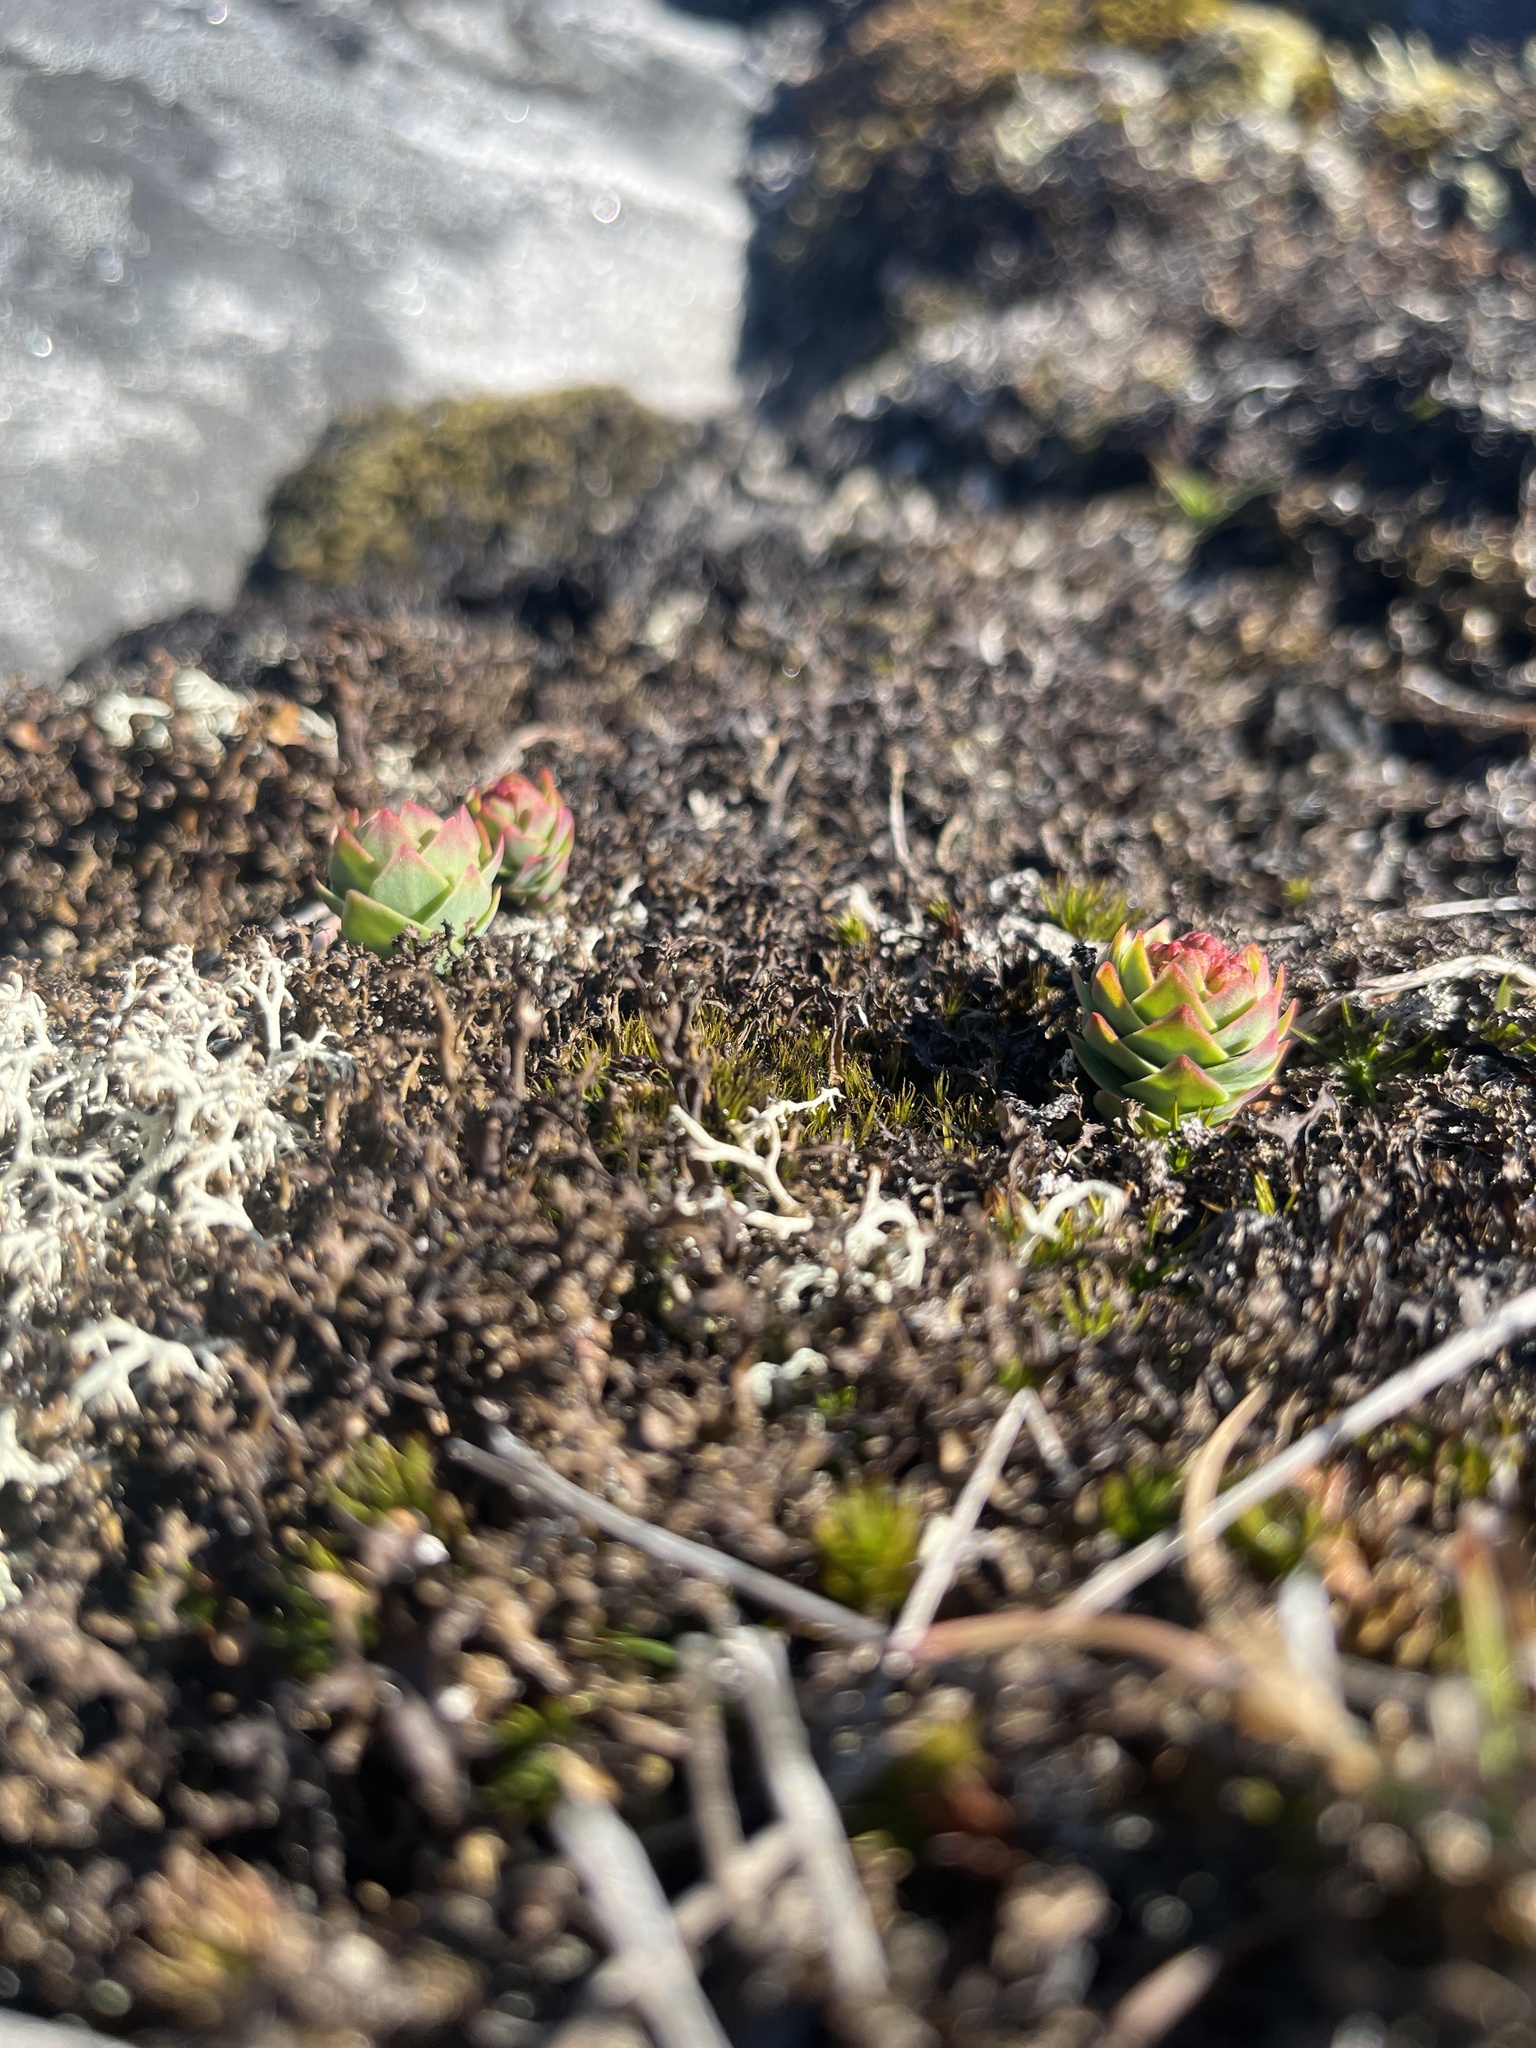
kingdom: Plantae
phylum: Tracheophyta
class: Magnoliopsida
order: Saxifragales
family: Crassulaceae
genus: Rhodiola
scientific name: Rhodiola rosea
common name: Roseroot
